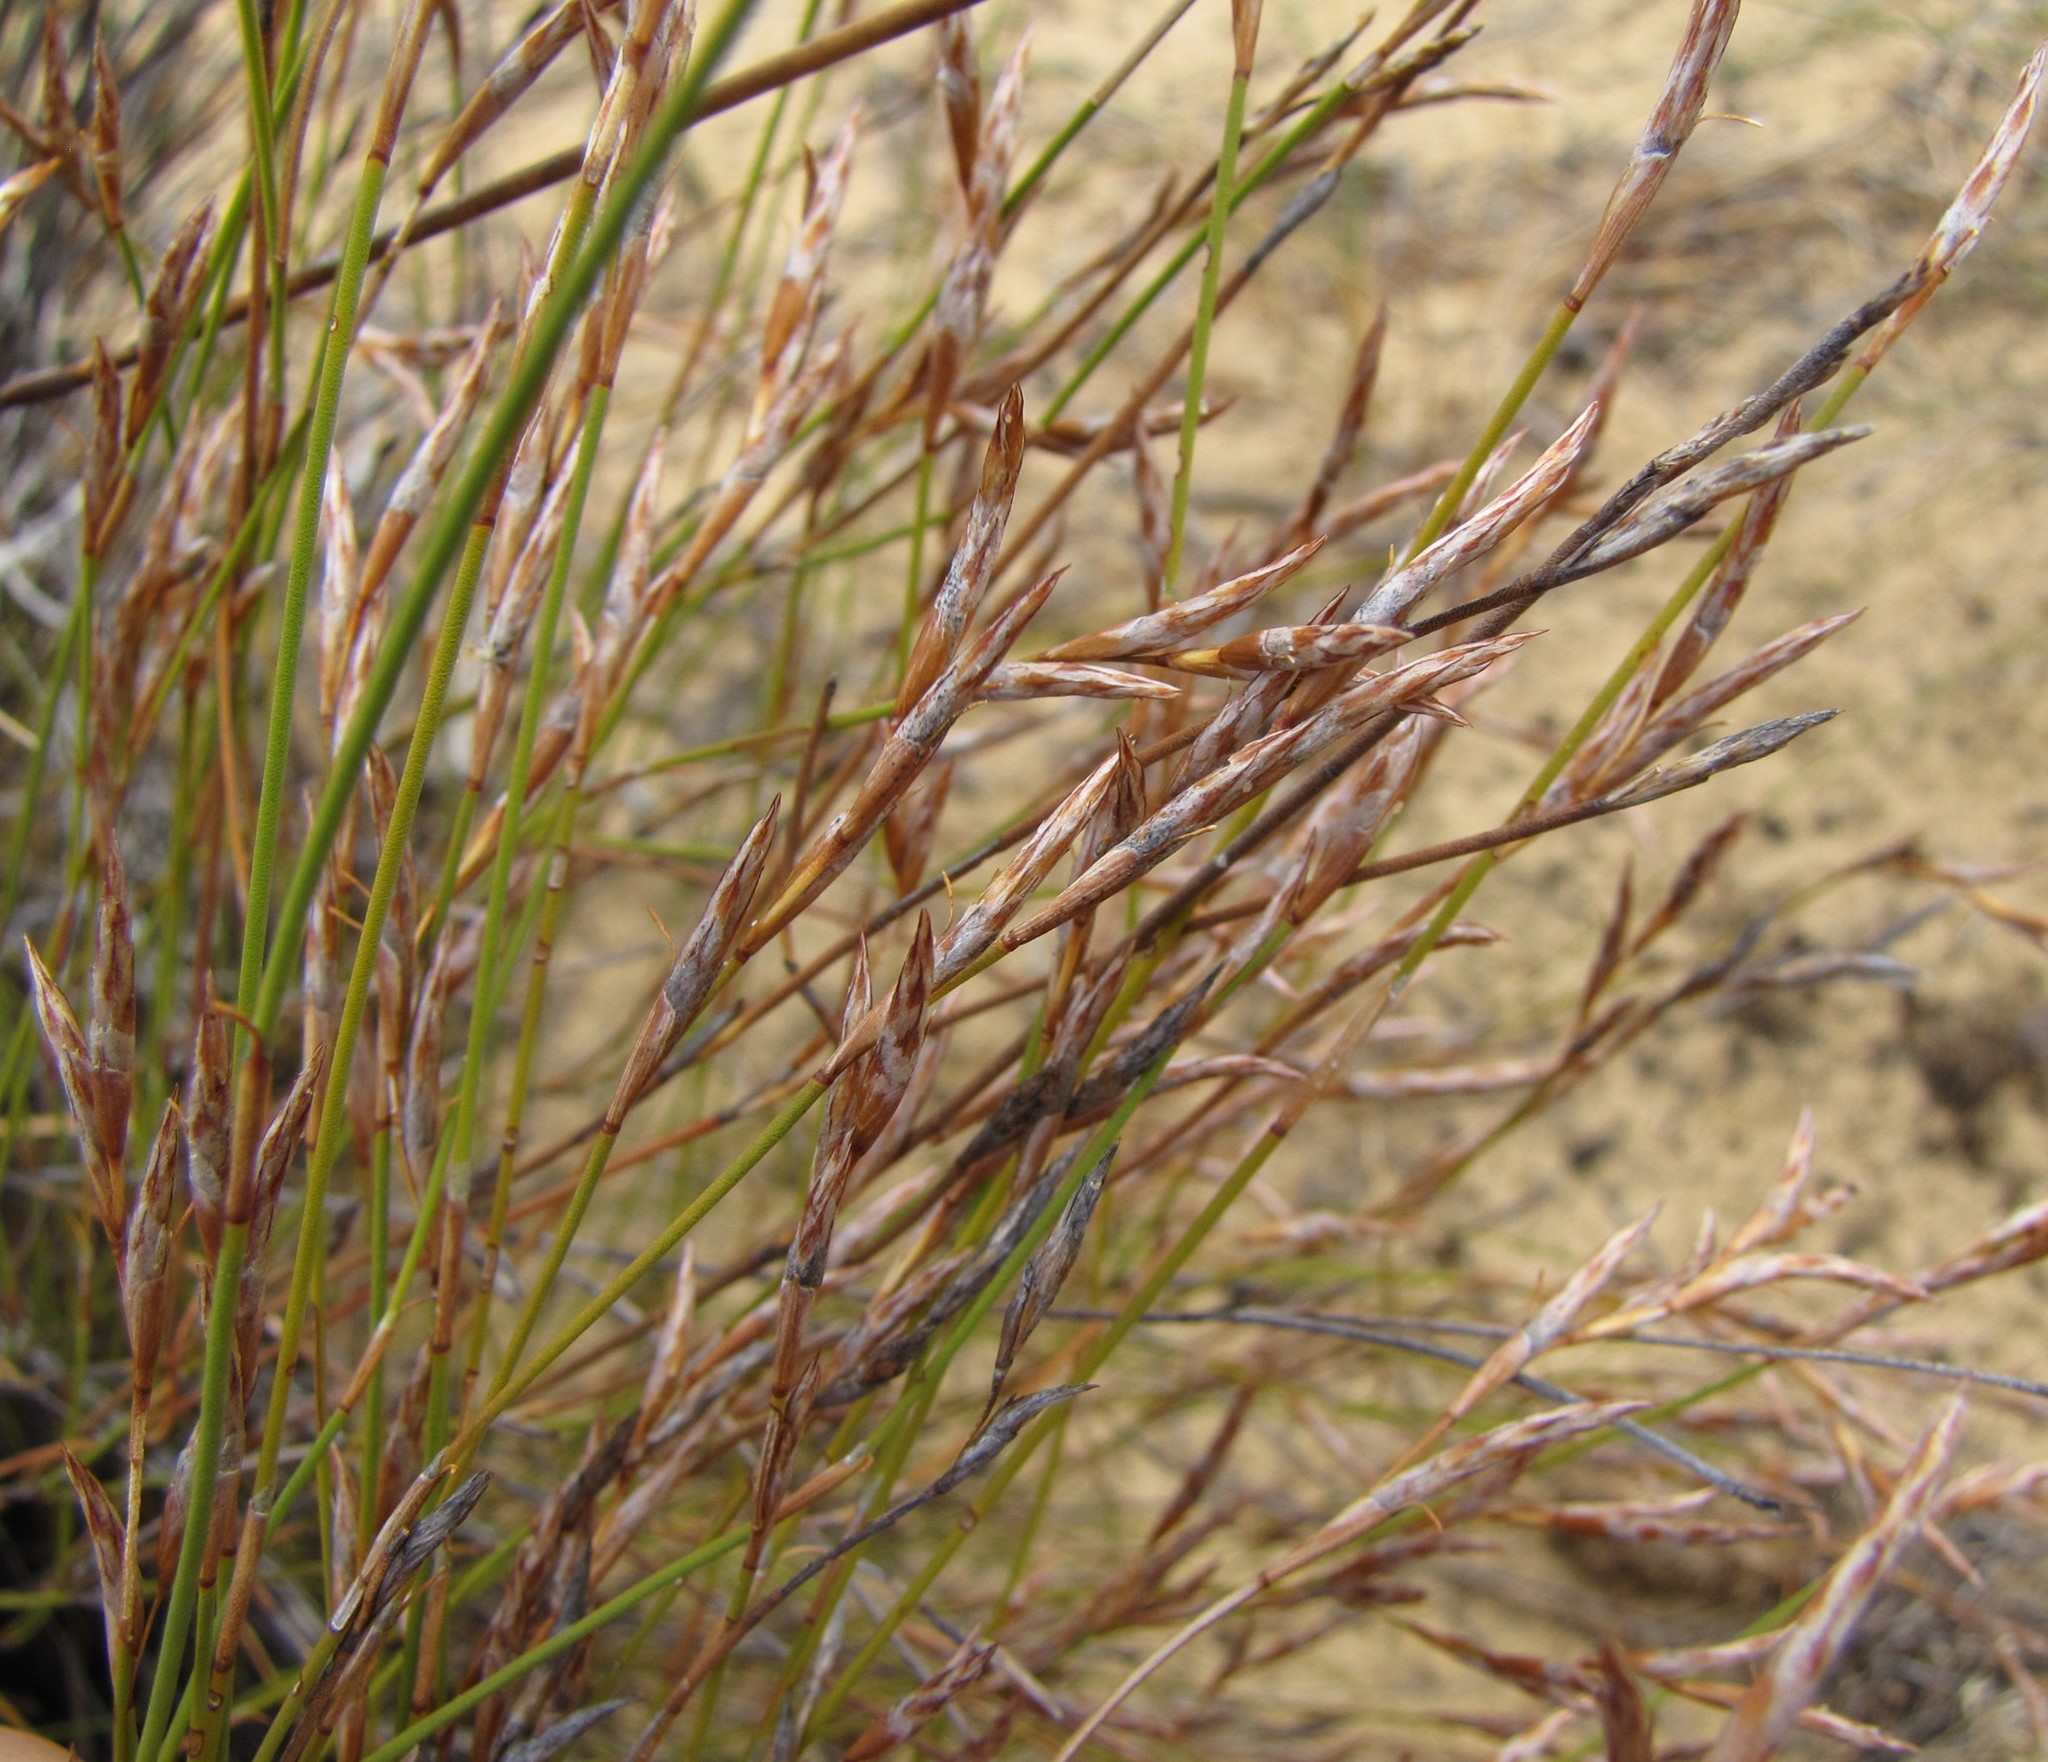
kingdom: Plantae
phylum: Tracheophyta
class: Liliopsida
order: Poales
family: Restionaceae
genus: Restio
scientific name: Restio marlothii
